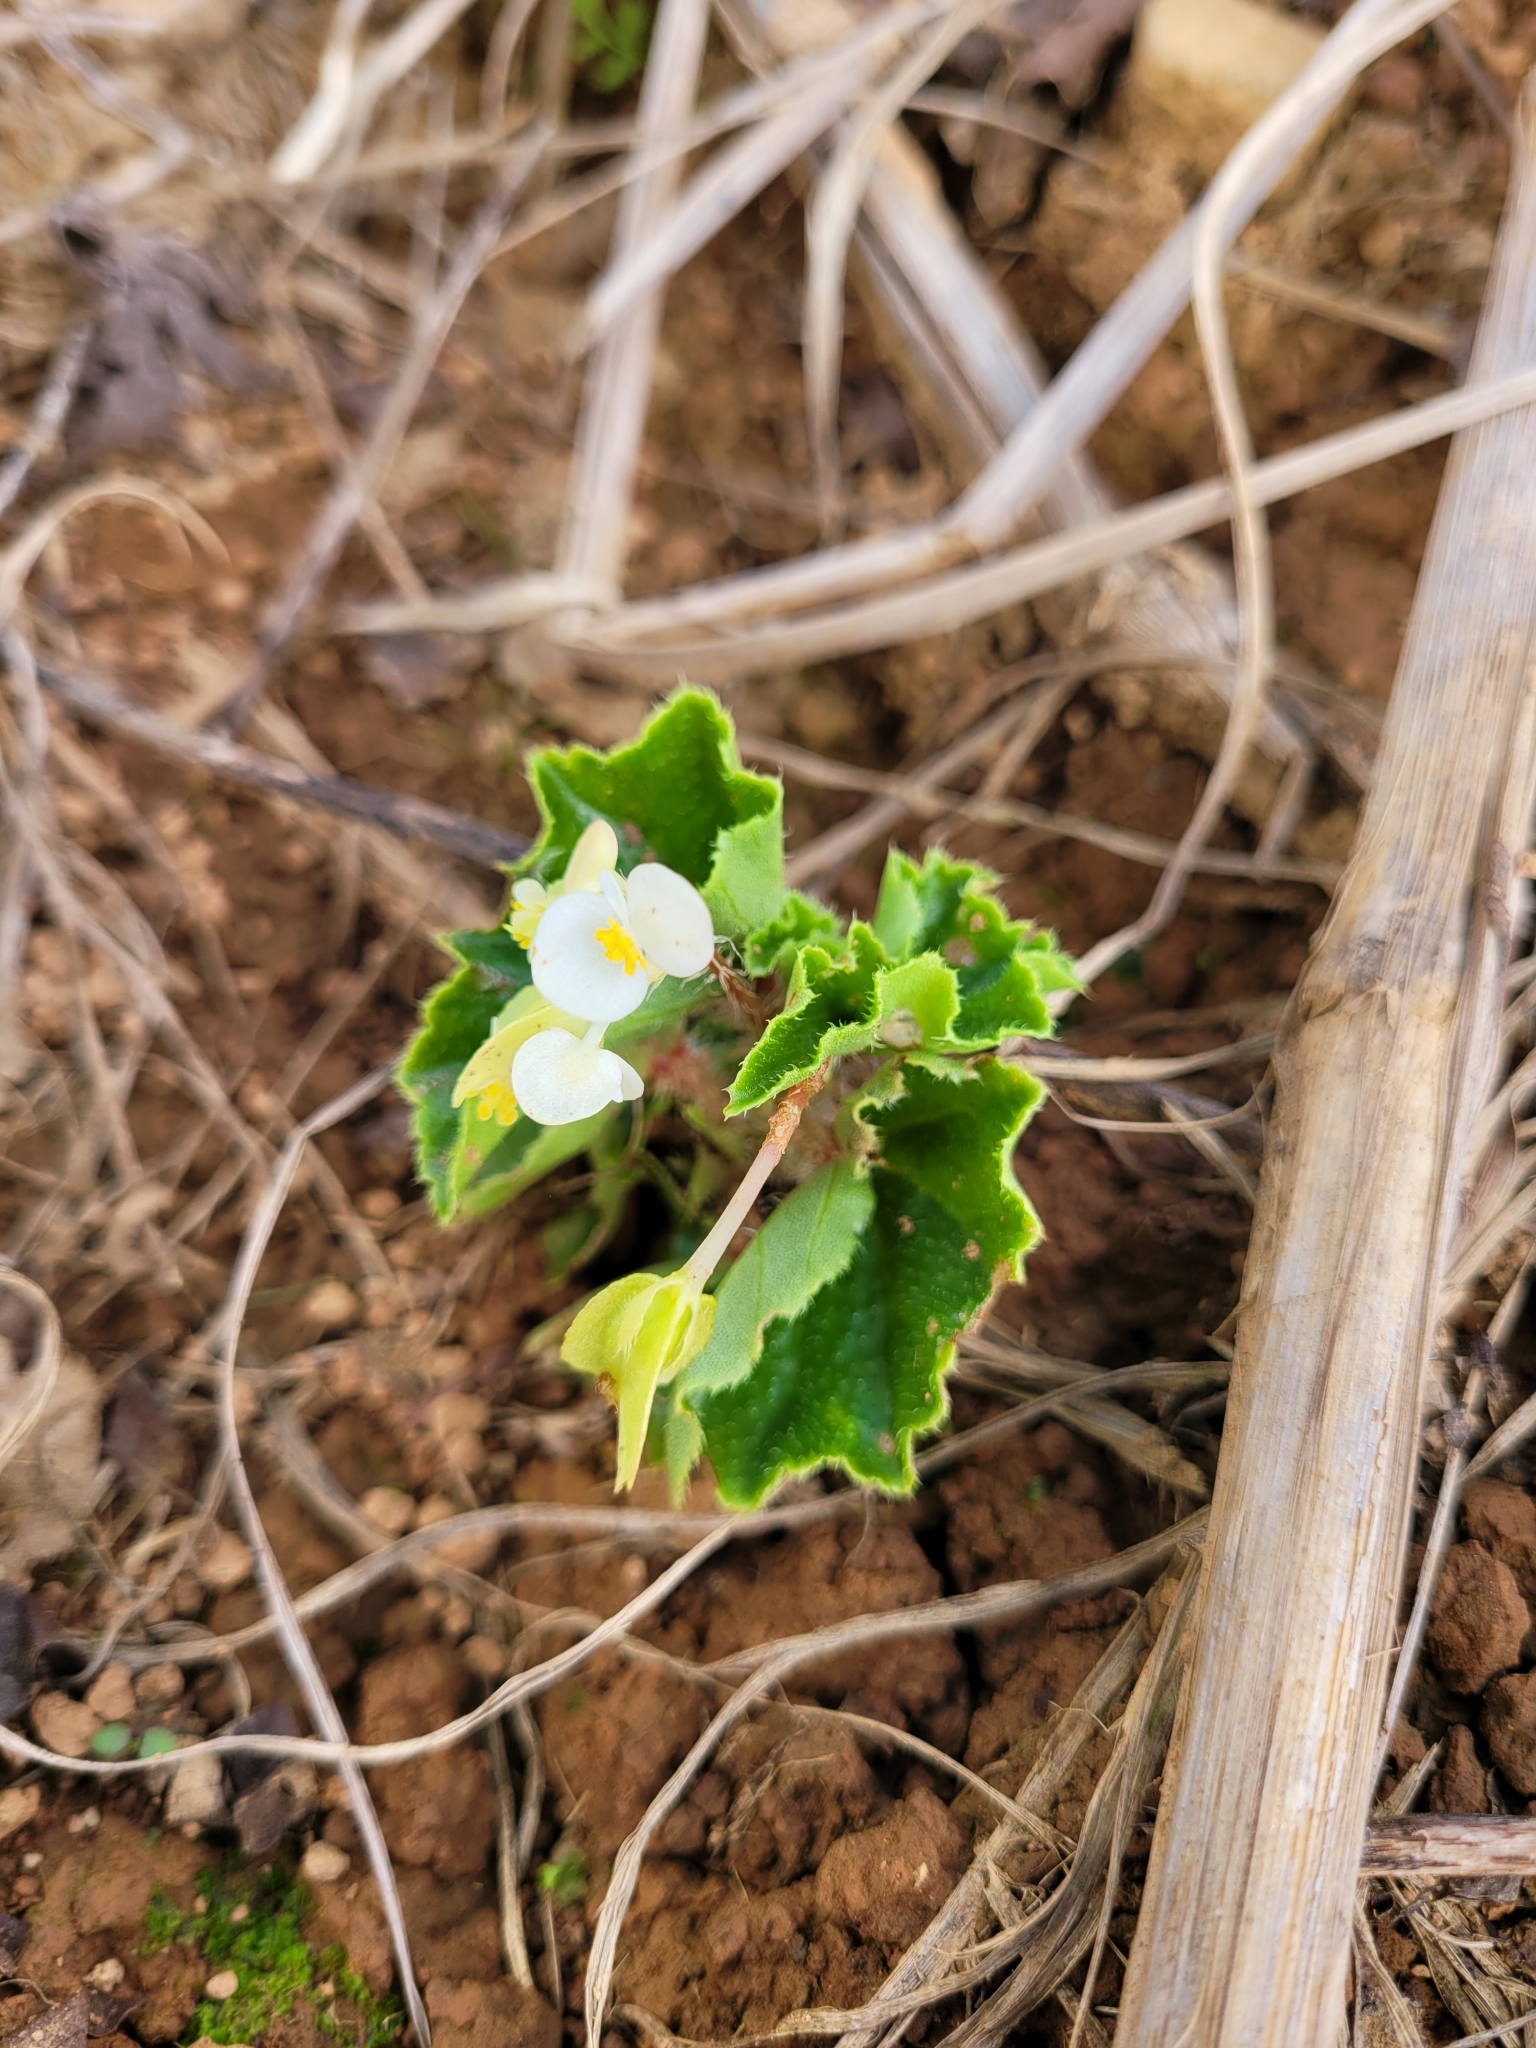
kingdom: Plantae
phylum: Tracheophyta
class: Magnoliopsida
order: Cucurbitales
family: Begoniaceae
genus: Begonia
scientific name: Begonia hirtella
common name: Brazilian begonia
